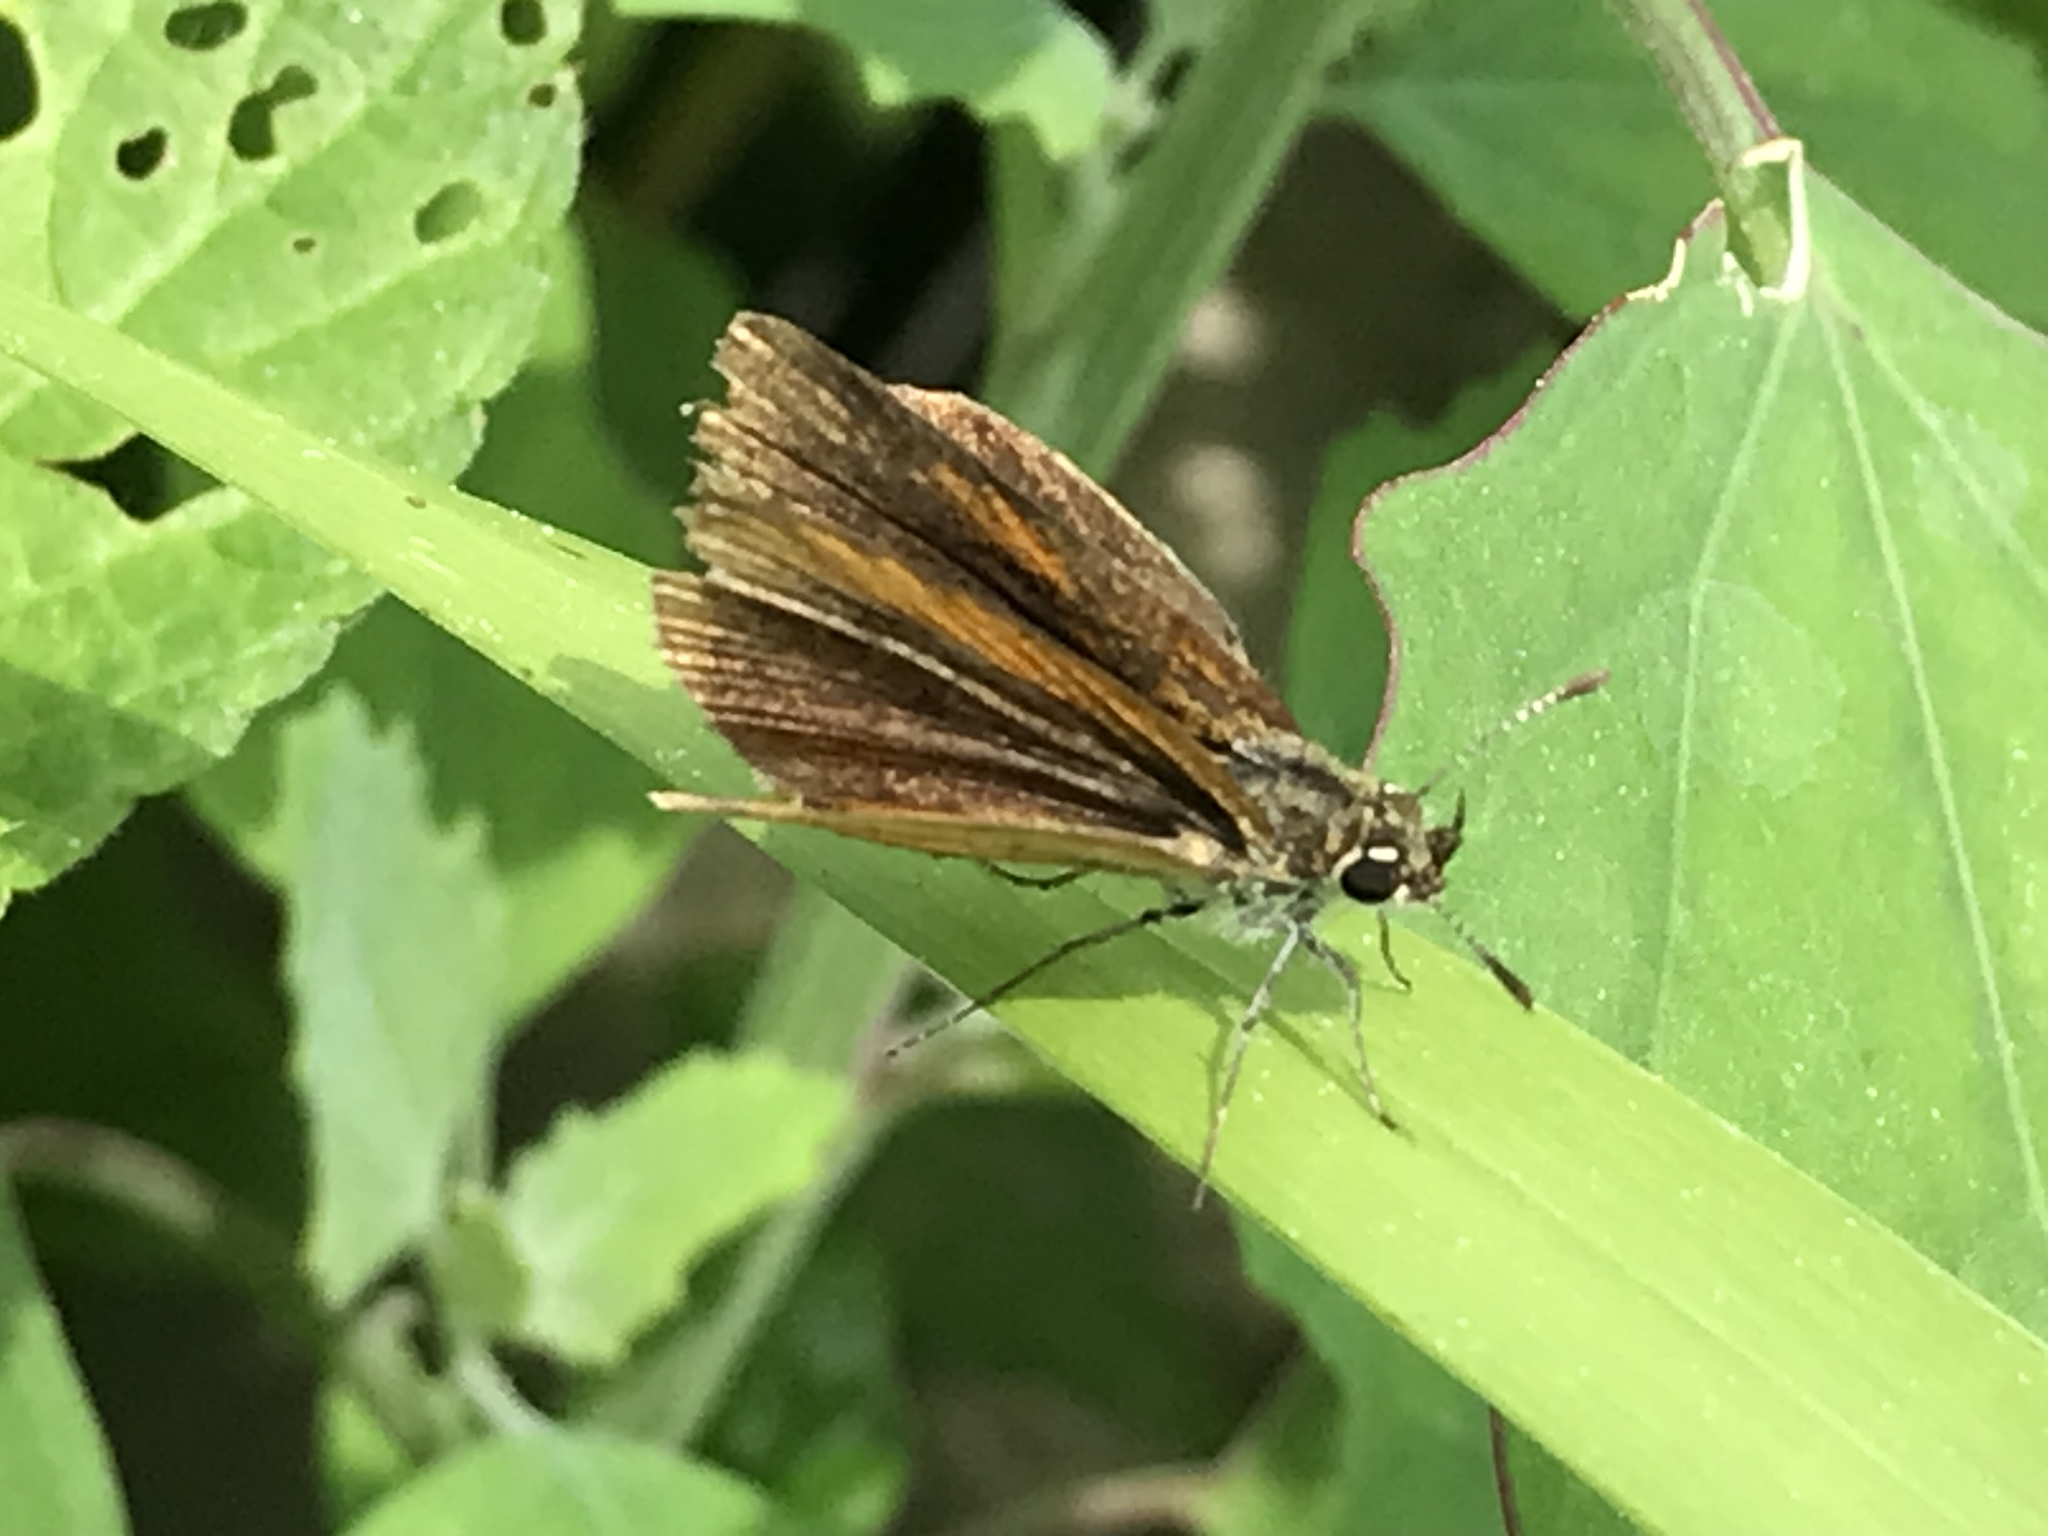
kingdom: Animalia
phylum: Arthropoda
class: Insecta
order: Lepidoptera
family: Hesperiidae
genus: Ancyloxypha
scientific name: Ancyloxypha numitor
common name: Least skipper
